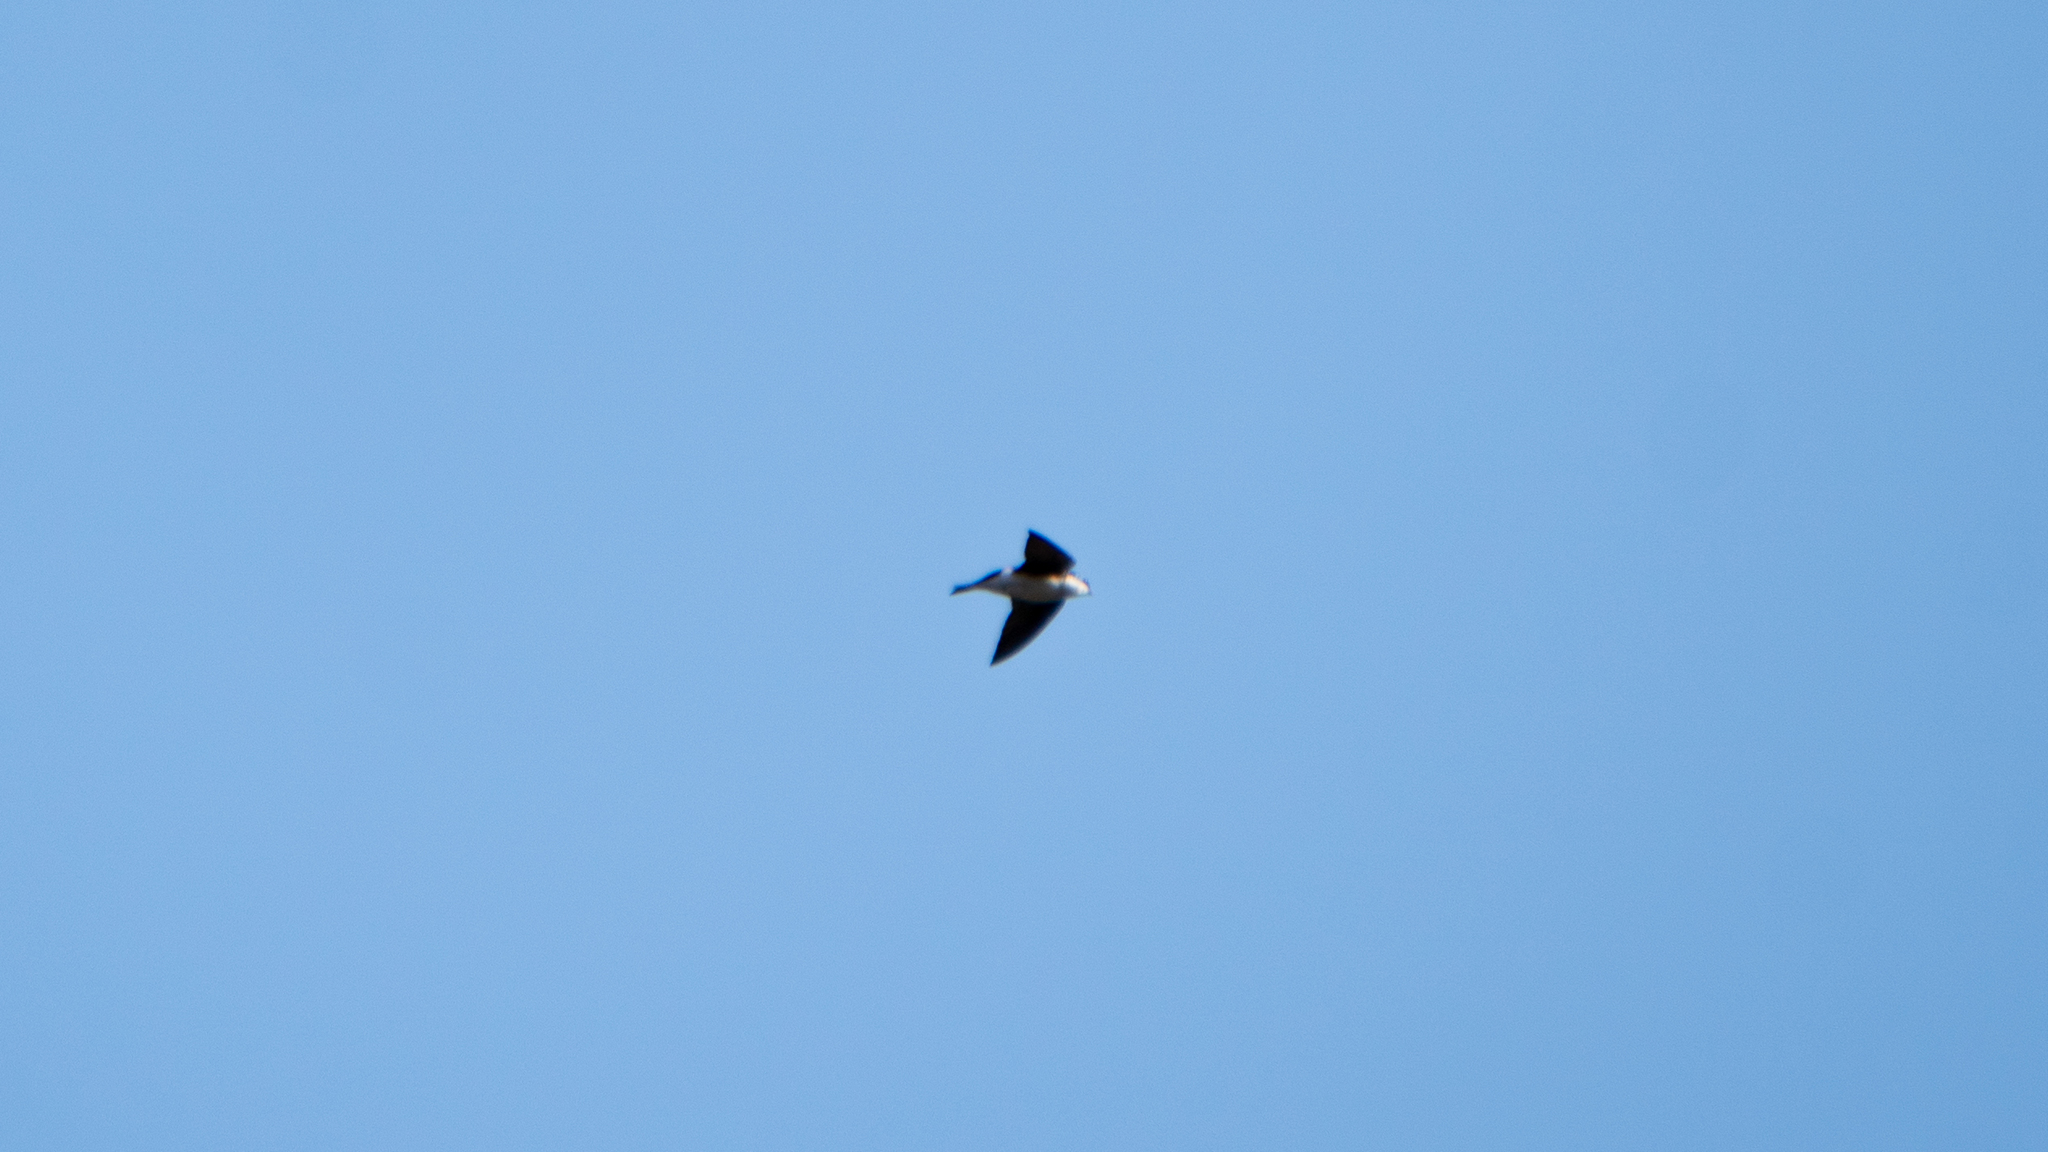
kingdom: Animalia
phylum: Chordata
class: Aves
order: Passeriformes
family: Hirundinidae
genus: Tachycineta
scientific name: Tachycineta bicolor
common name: Tree swallow
